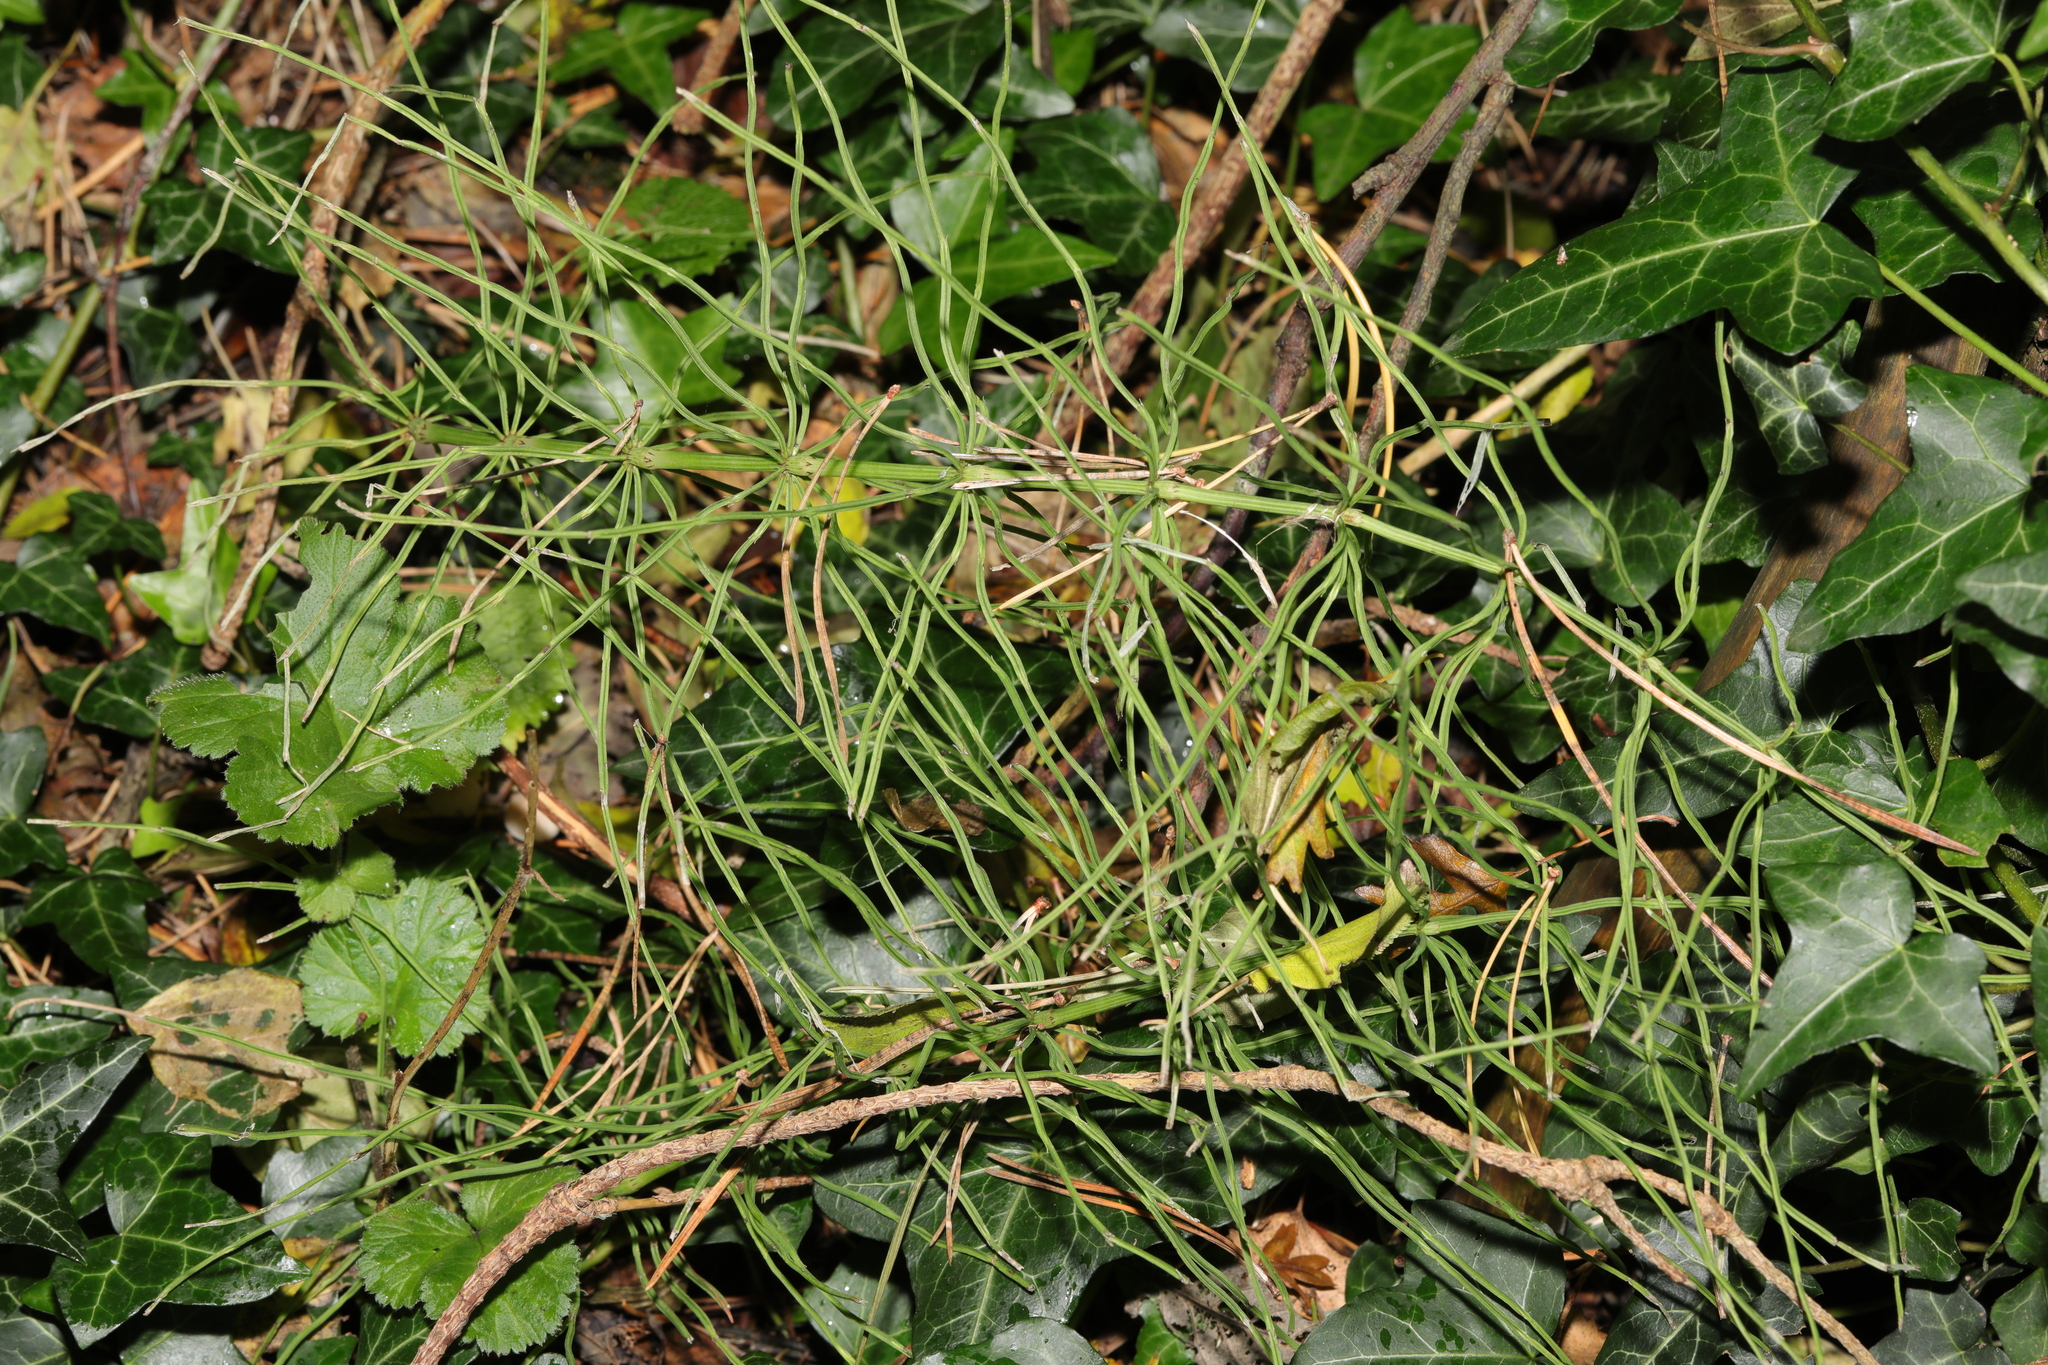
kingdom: Plantae
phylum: Tracheophyta
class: Polypodiopsida
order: Equisetales
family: Equisetaceae
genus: Equisetum
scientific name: Equisetum arvense
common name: Field horsetail
